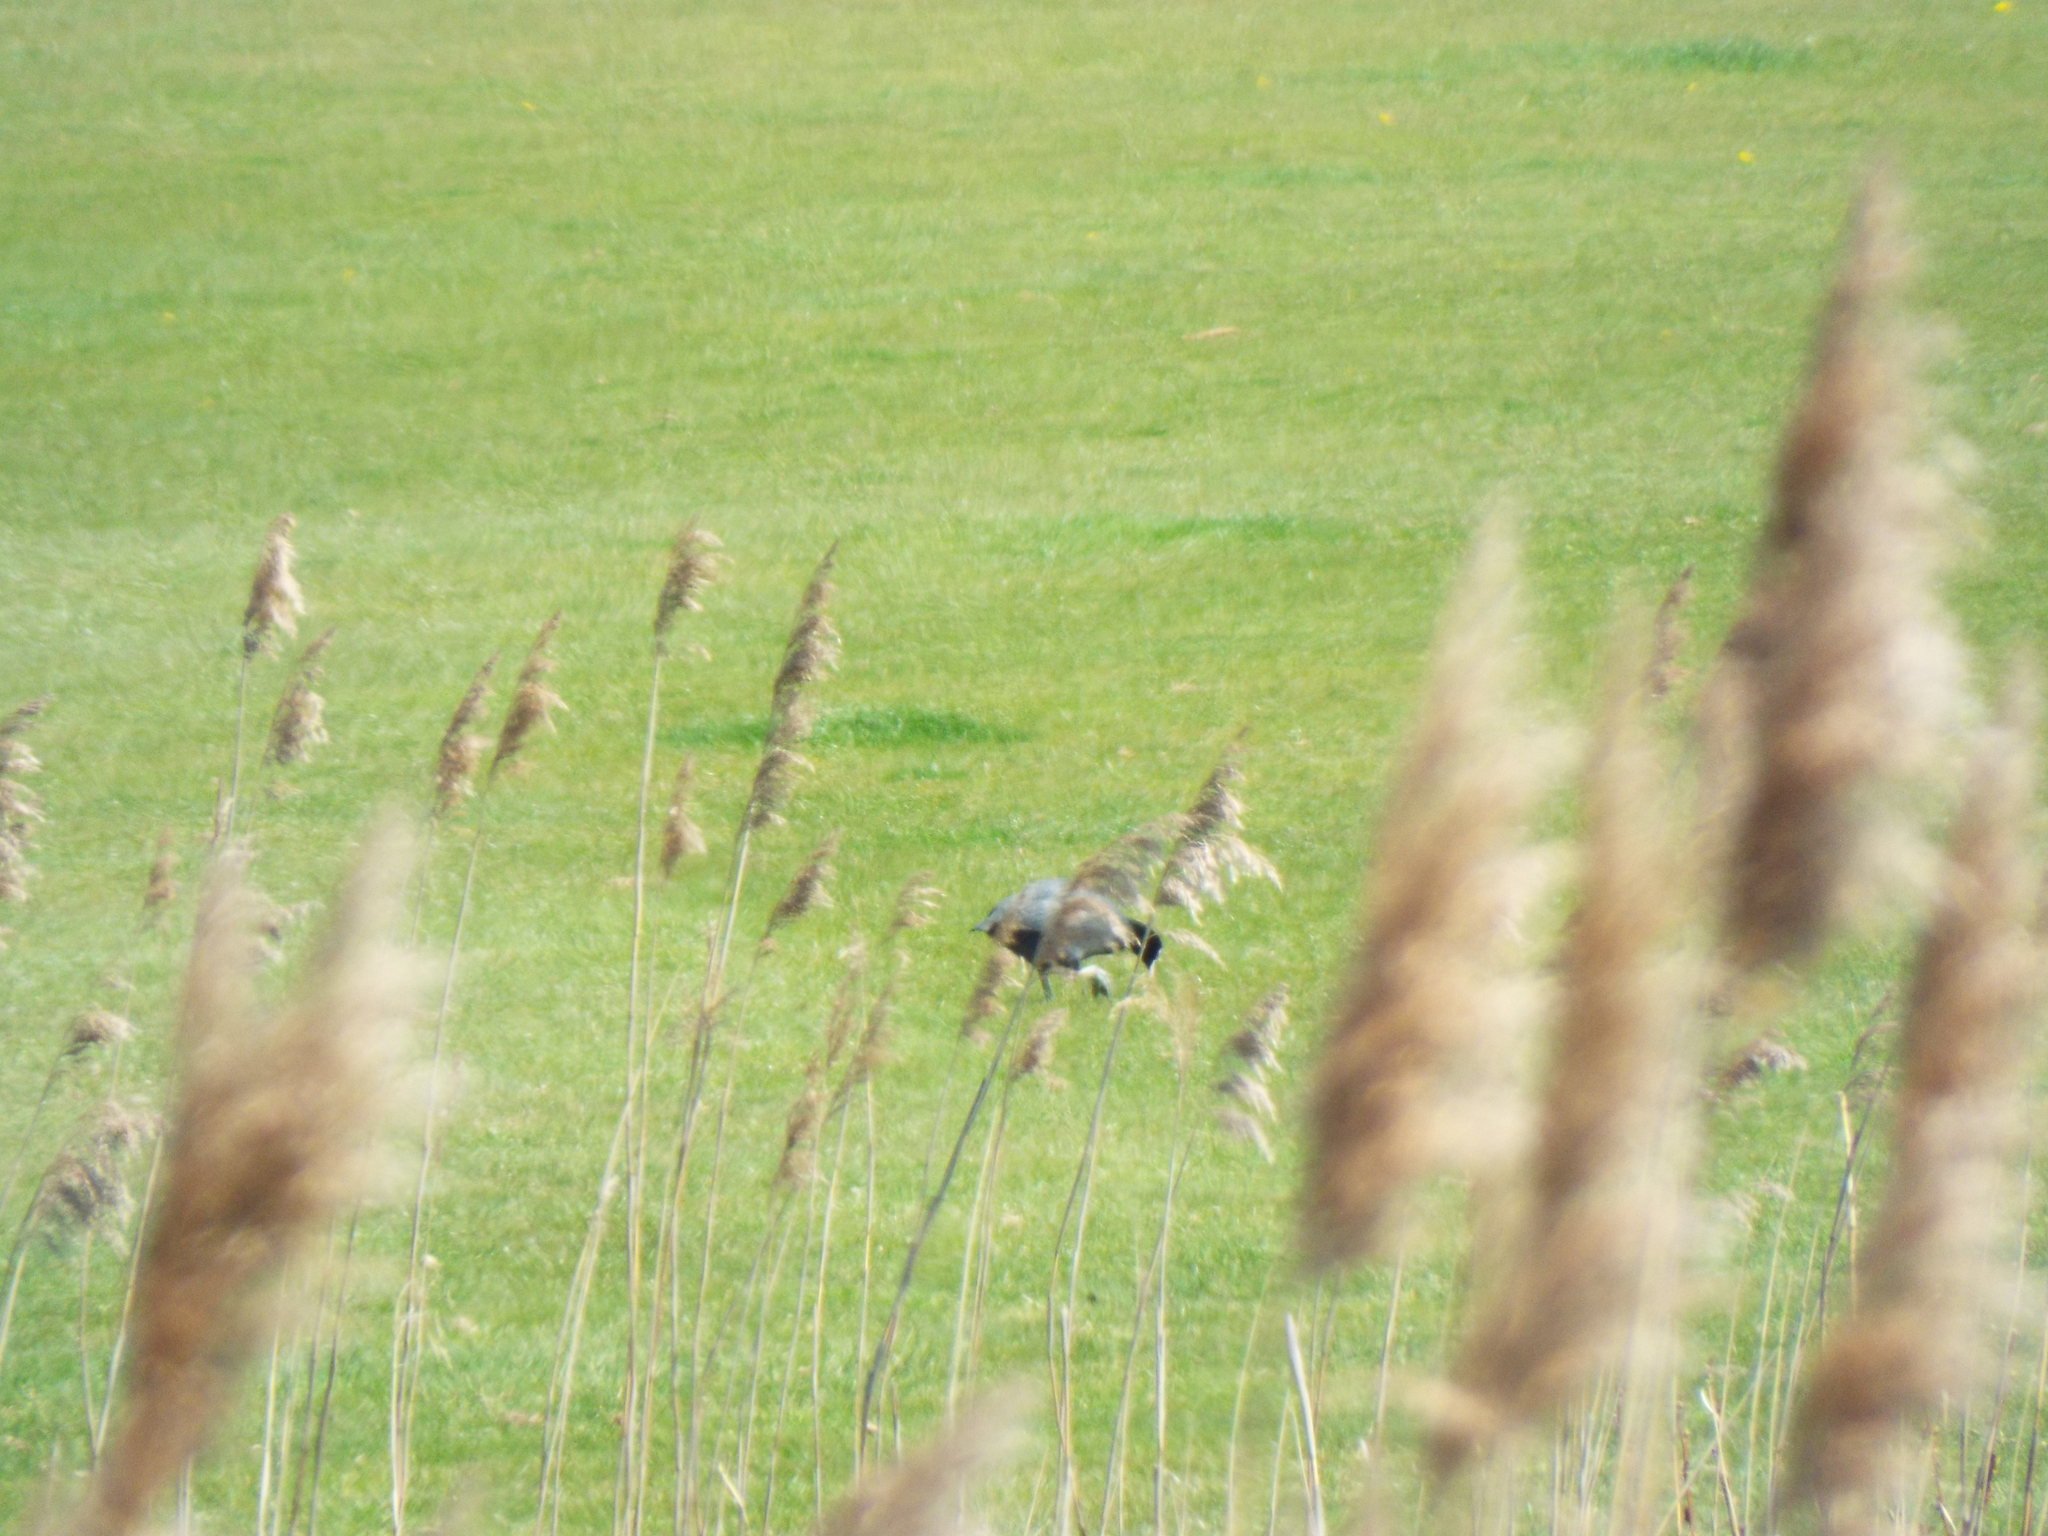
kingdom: Animalia
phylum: Chordata
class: Aves
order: Gruiformes
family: Rallidae
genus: Fulica
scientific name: Fulica atra
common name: Eurasian coot
